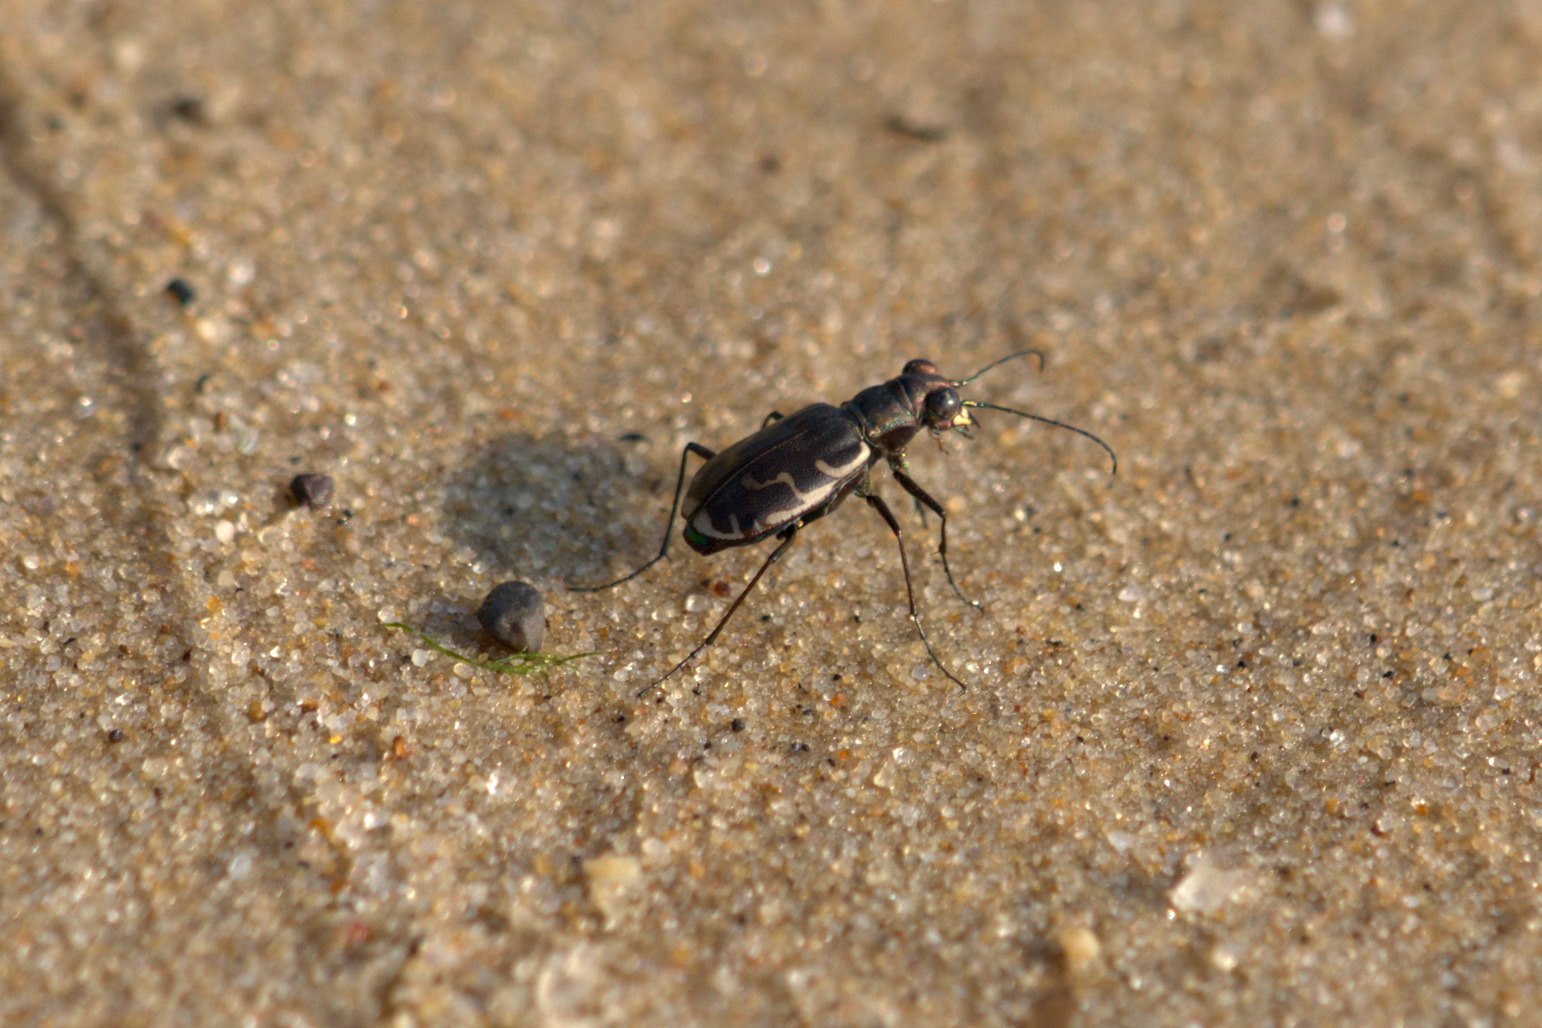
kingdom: Animalia
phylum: Arthropoda
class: Insecta
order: Coleoptera
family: Carabidae
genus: Cicindela
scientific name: Cicindela repanda
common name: Bronzed tiger beetle
